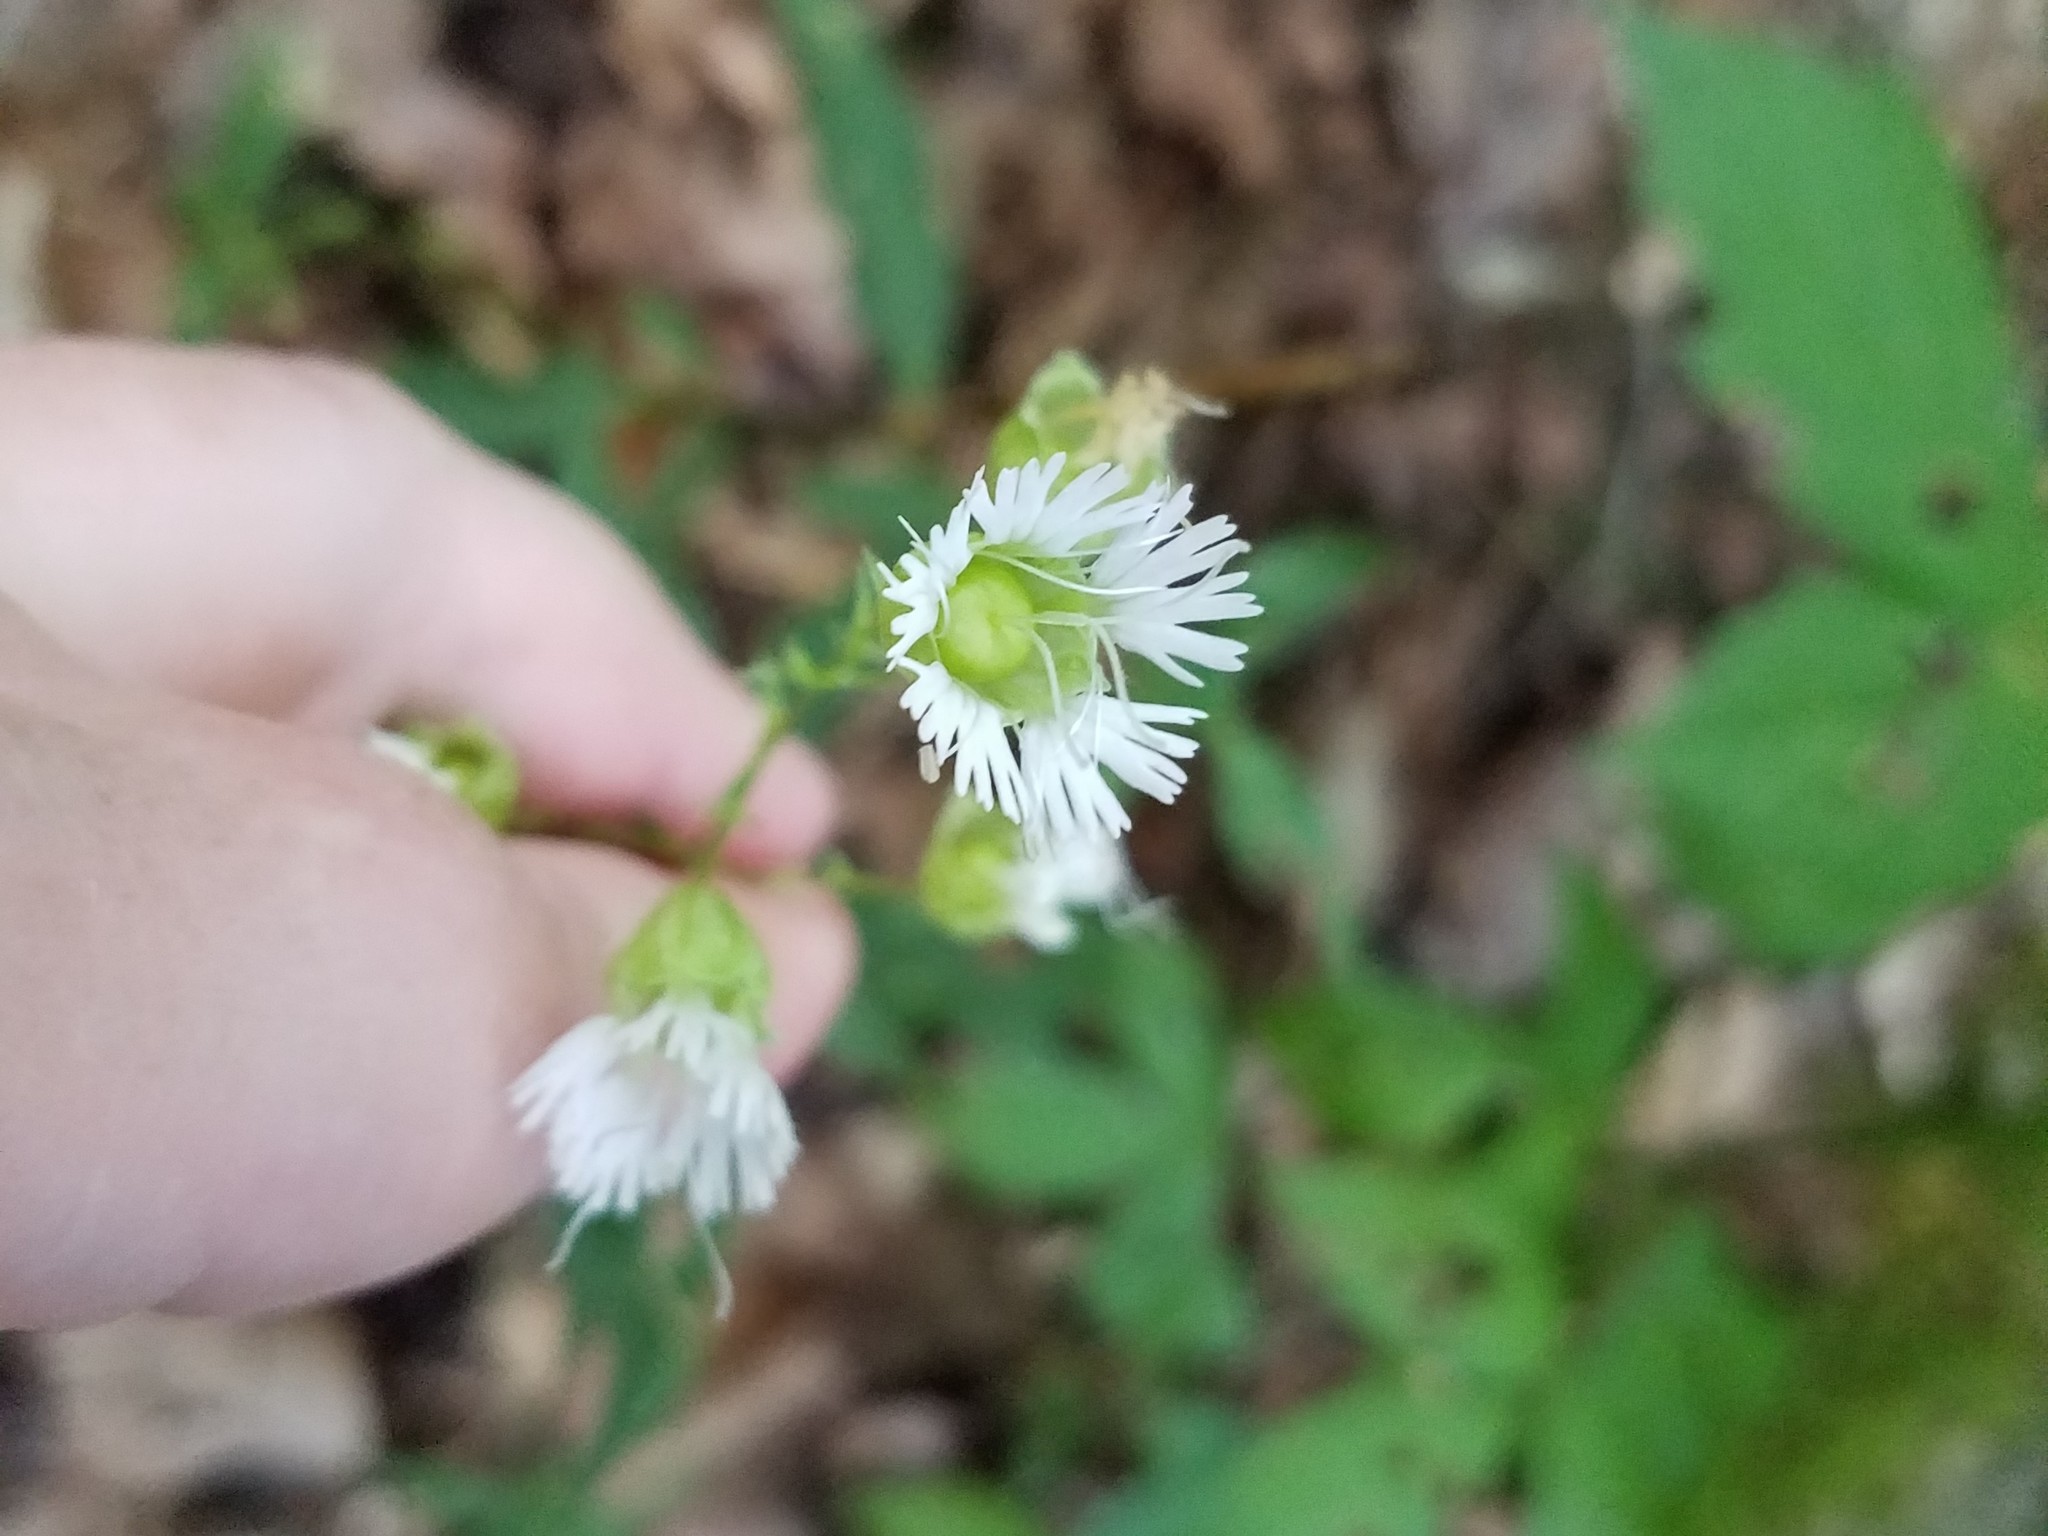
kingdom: Plantae
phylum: Tracheophyta
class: Magnoliopsida
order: Caryophyllales
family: Caryophyllaceae
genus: Silene
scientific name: Silene stellata
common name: Starry campion
